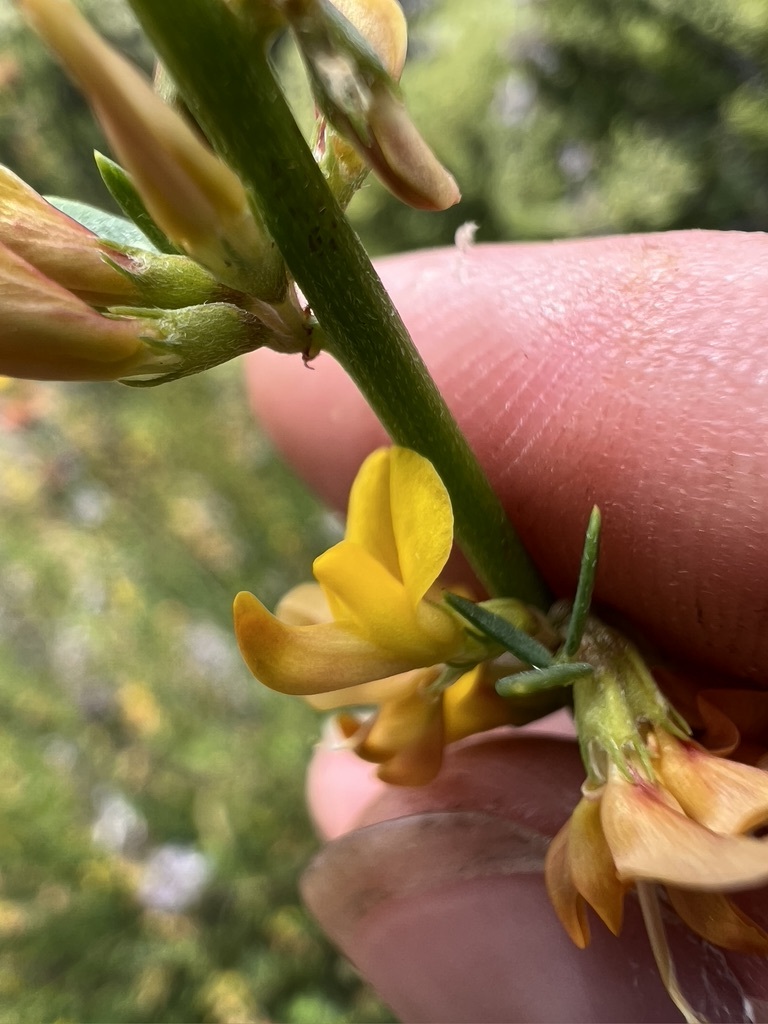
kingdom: Plantae
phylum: Tracheophyta
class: Magnoliopsida
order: Fabales
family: Fabaceae
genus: Acmispon
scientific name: Acmispon glaber
